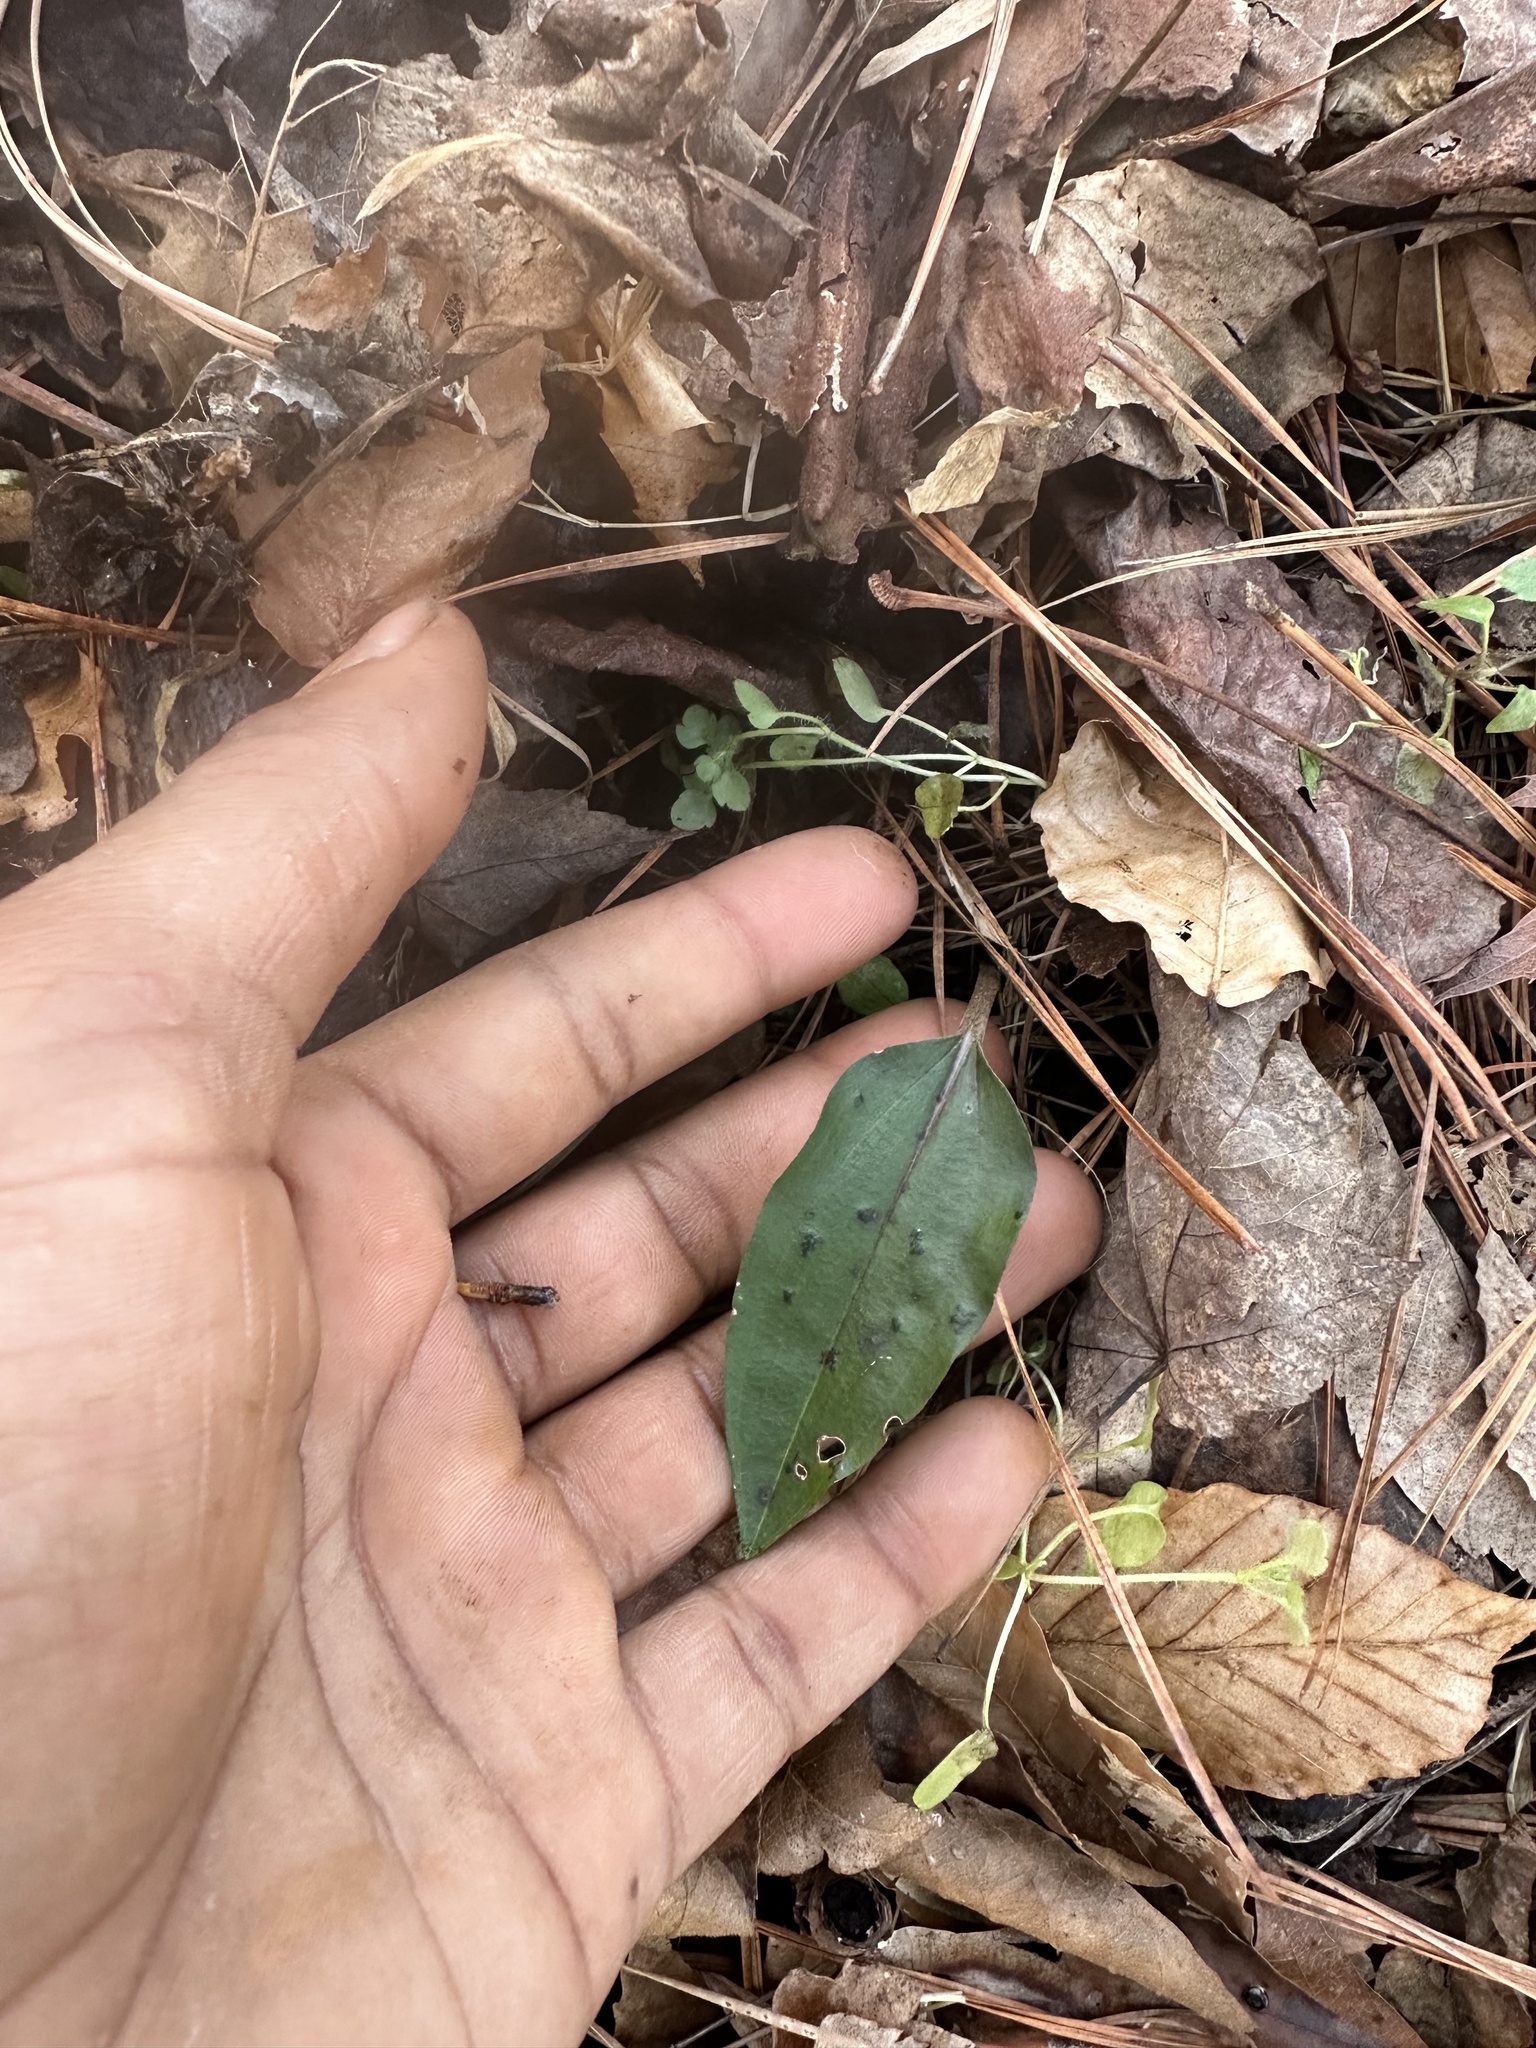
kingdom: Plantae
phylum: Tracheophyta
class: Liliopsida
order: Asparagales
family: Orchidaceae
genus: Tipularia
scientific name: Tipularia discolor
